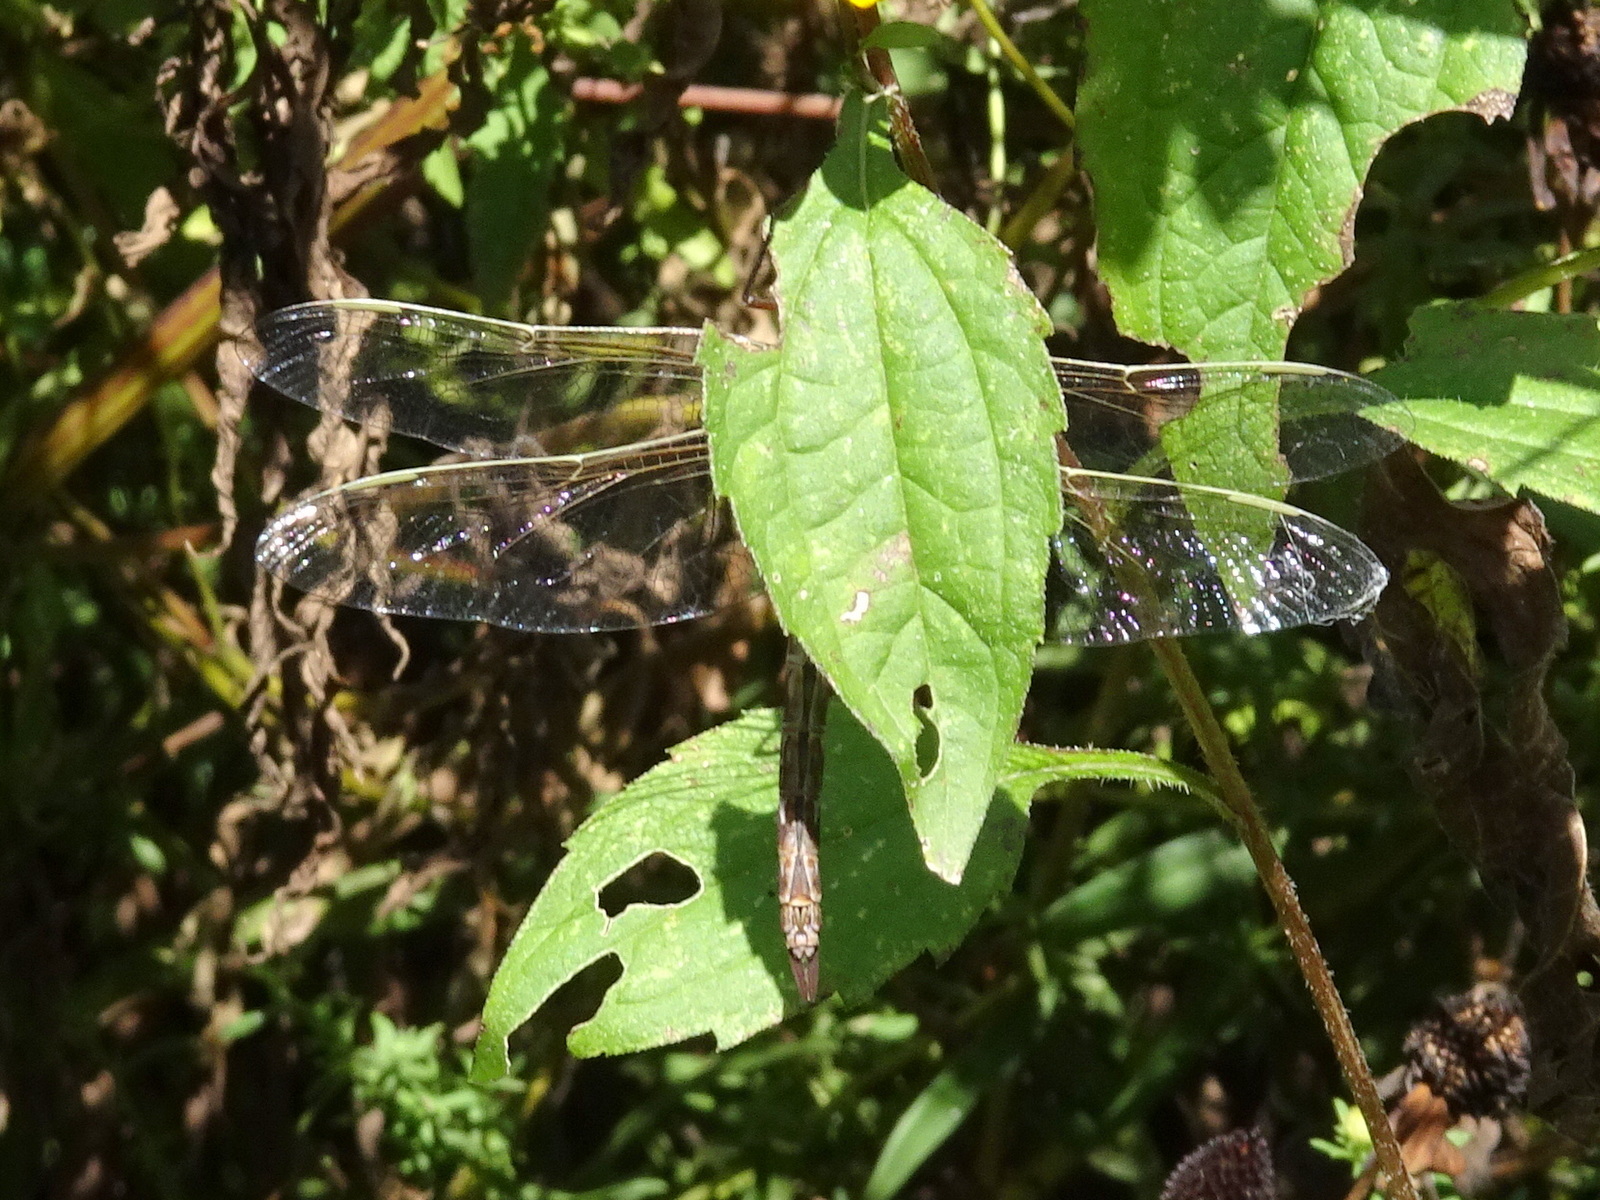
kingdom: Animalia
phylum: Arthropoda
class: Insecta
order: Odonata
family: Aeshnidae
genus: Anax
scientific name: Anax junius
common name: Common green darner
